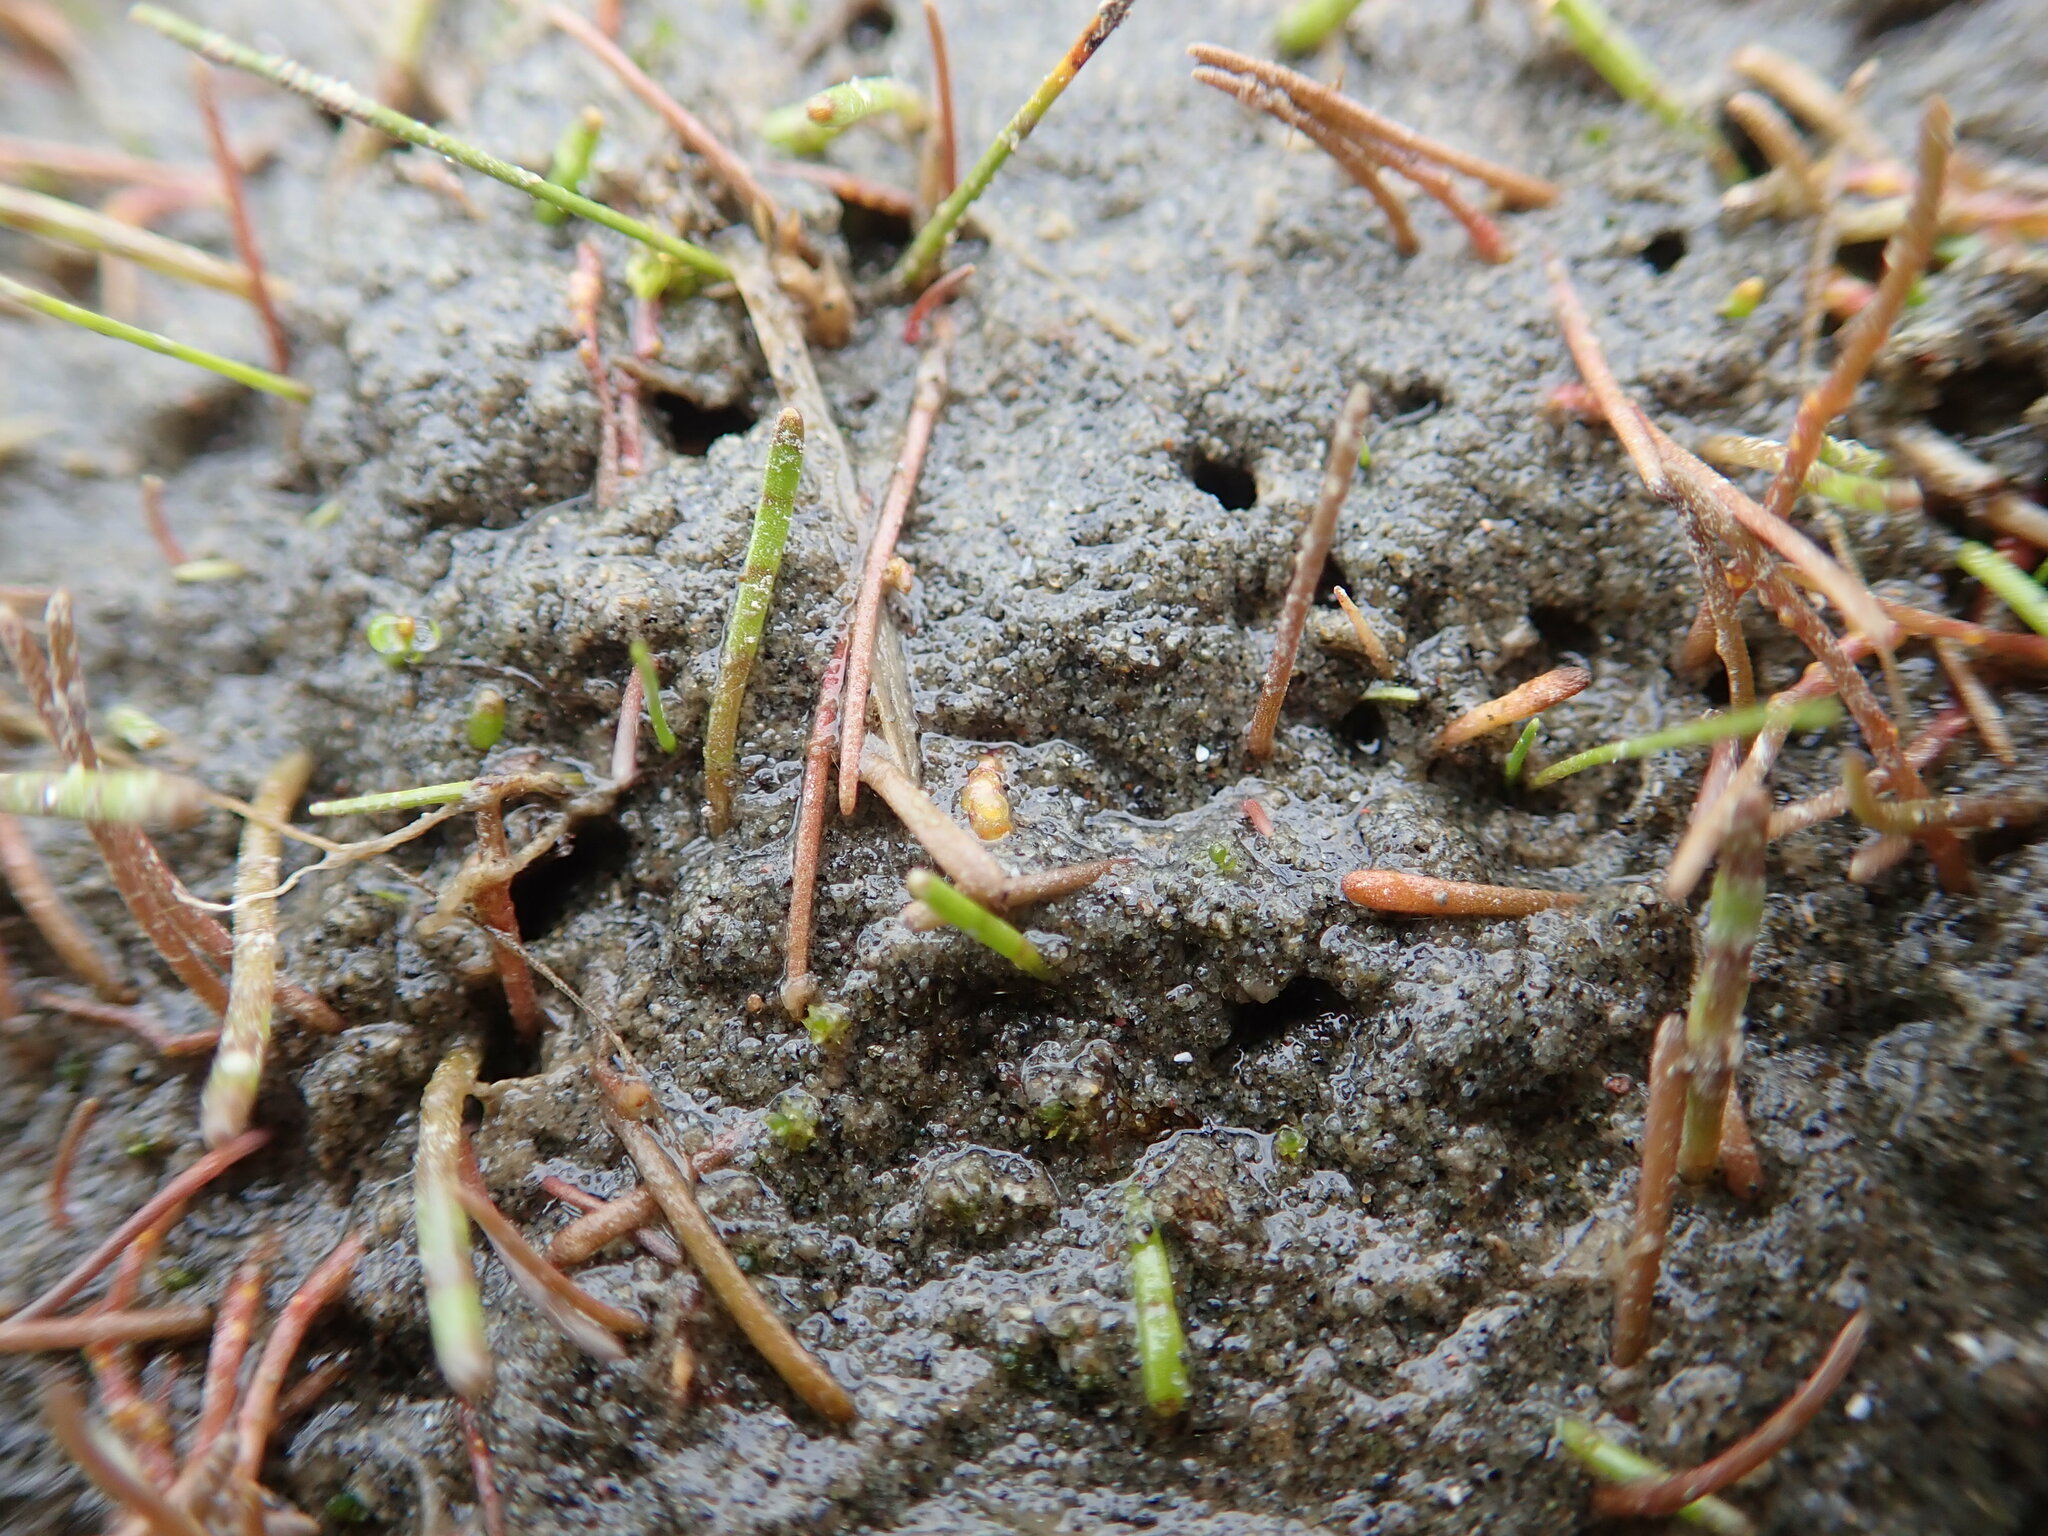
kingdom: Plantae
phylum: Tracheophyta
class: Magnoliopsida
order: Lamiales
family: Scrophulariaceae
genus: Limosella
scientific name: Limosella australis
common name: Welsh mudwort
